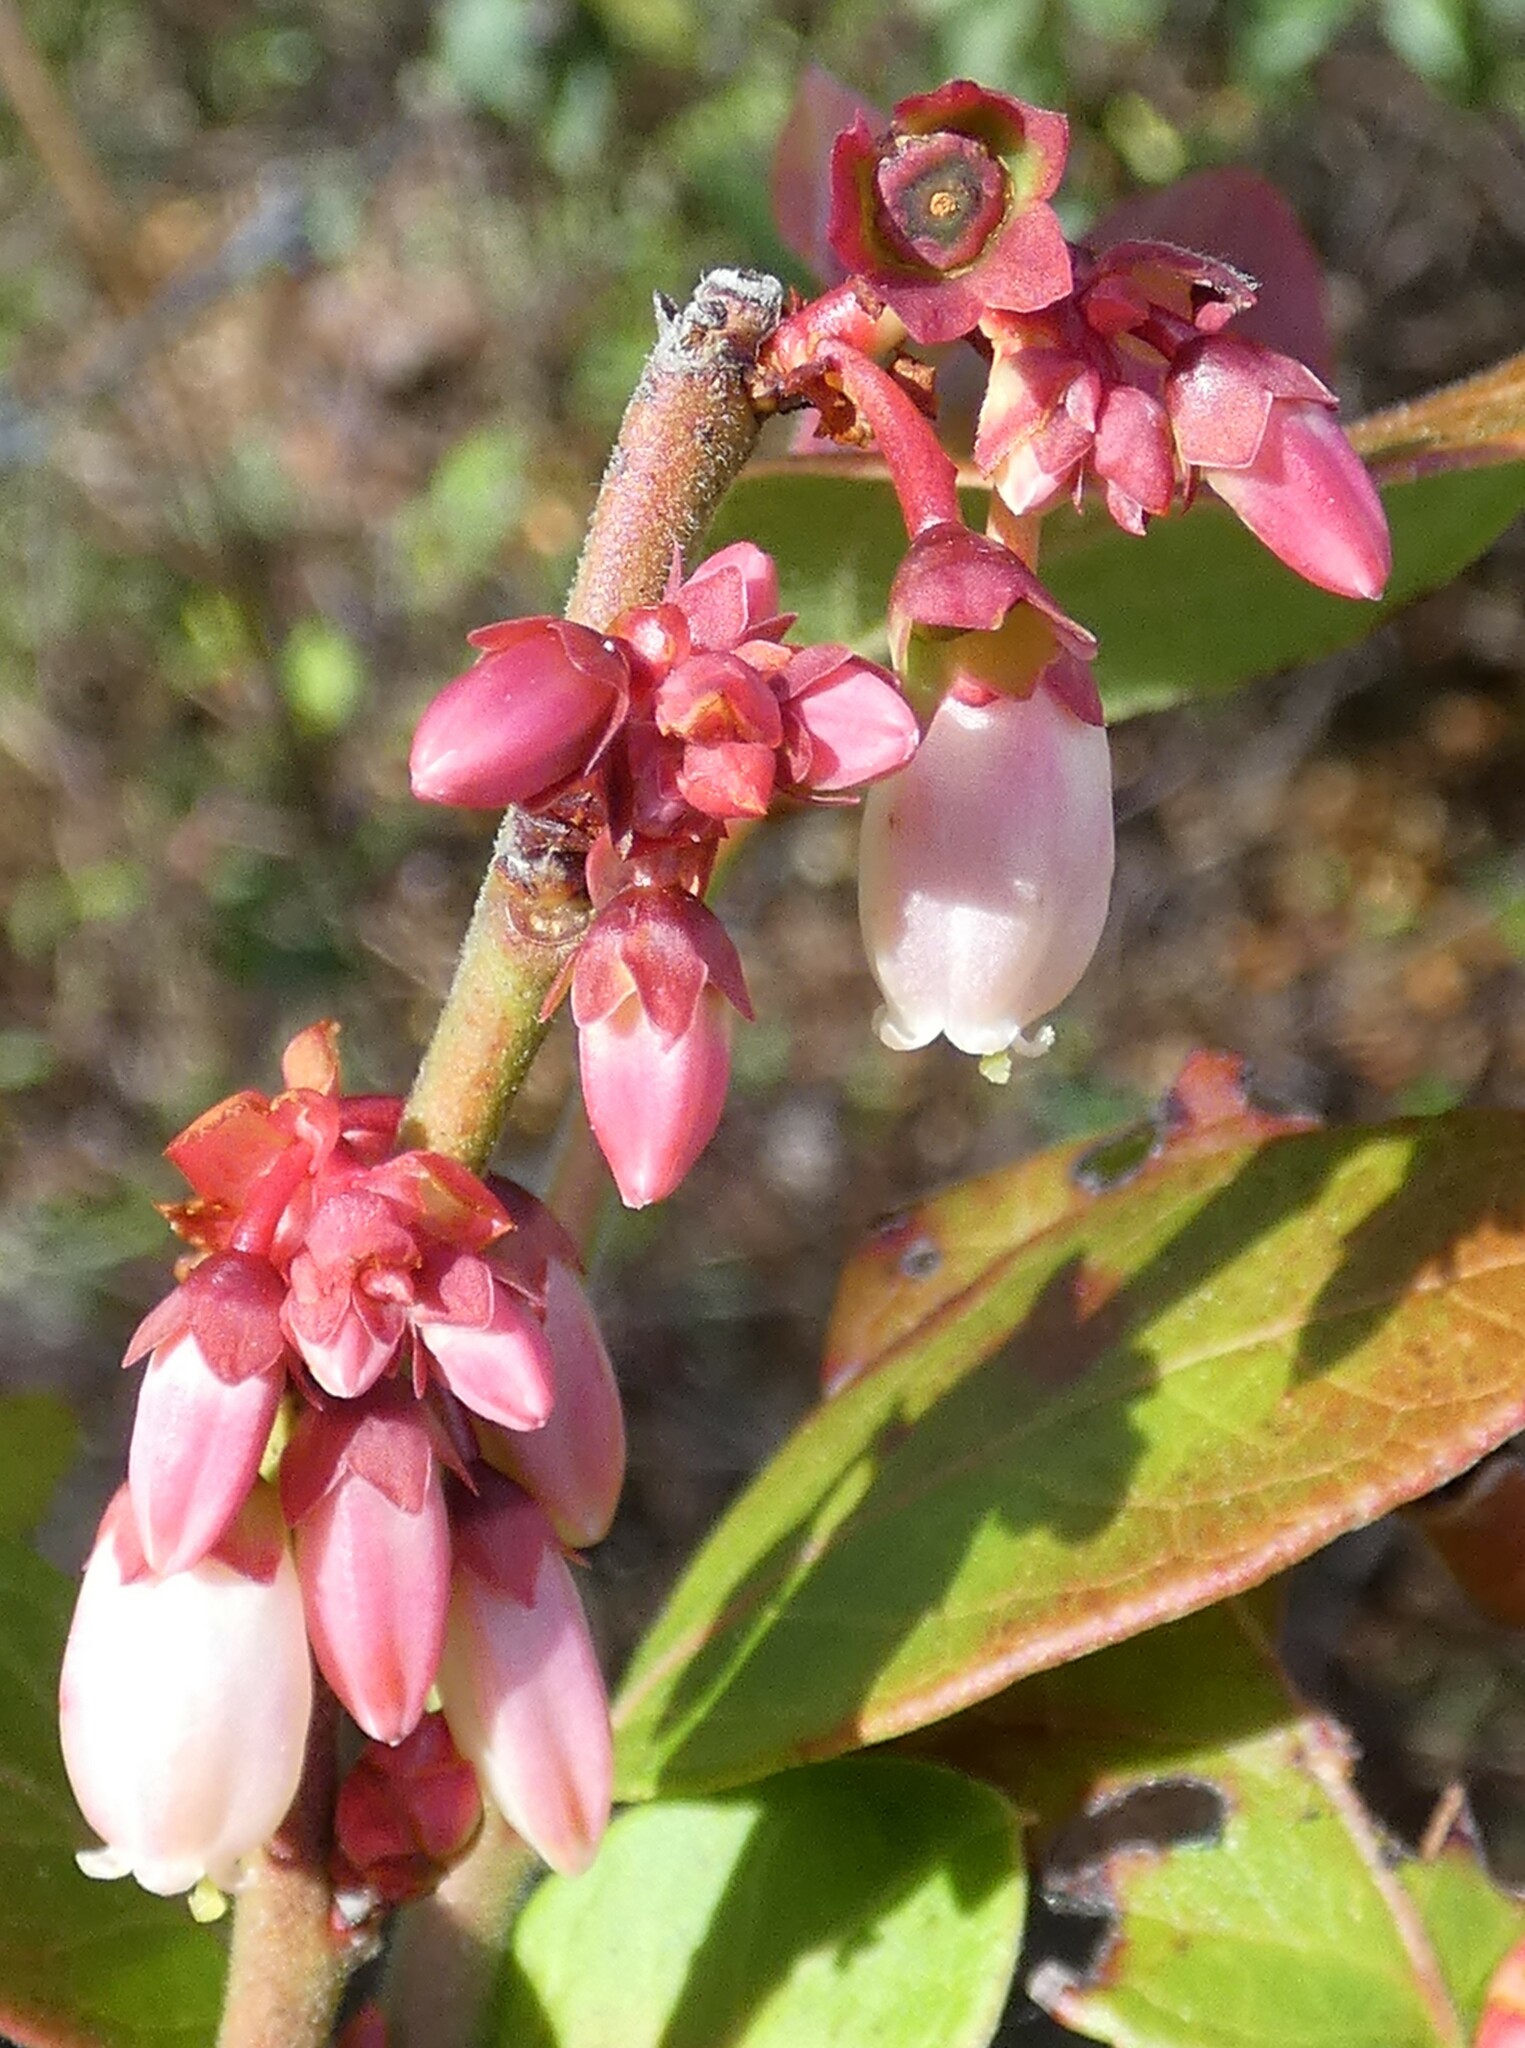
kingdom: Plantae
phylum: Tracheophyta
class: Magnoliopsida
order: Ericales
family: Ericaceae
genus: Vaccinium
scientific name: Vaccinium corymbosum
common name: Blueberry
